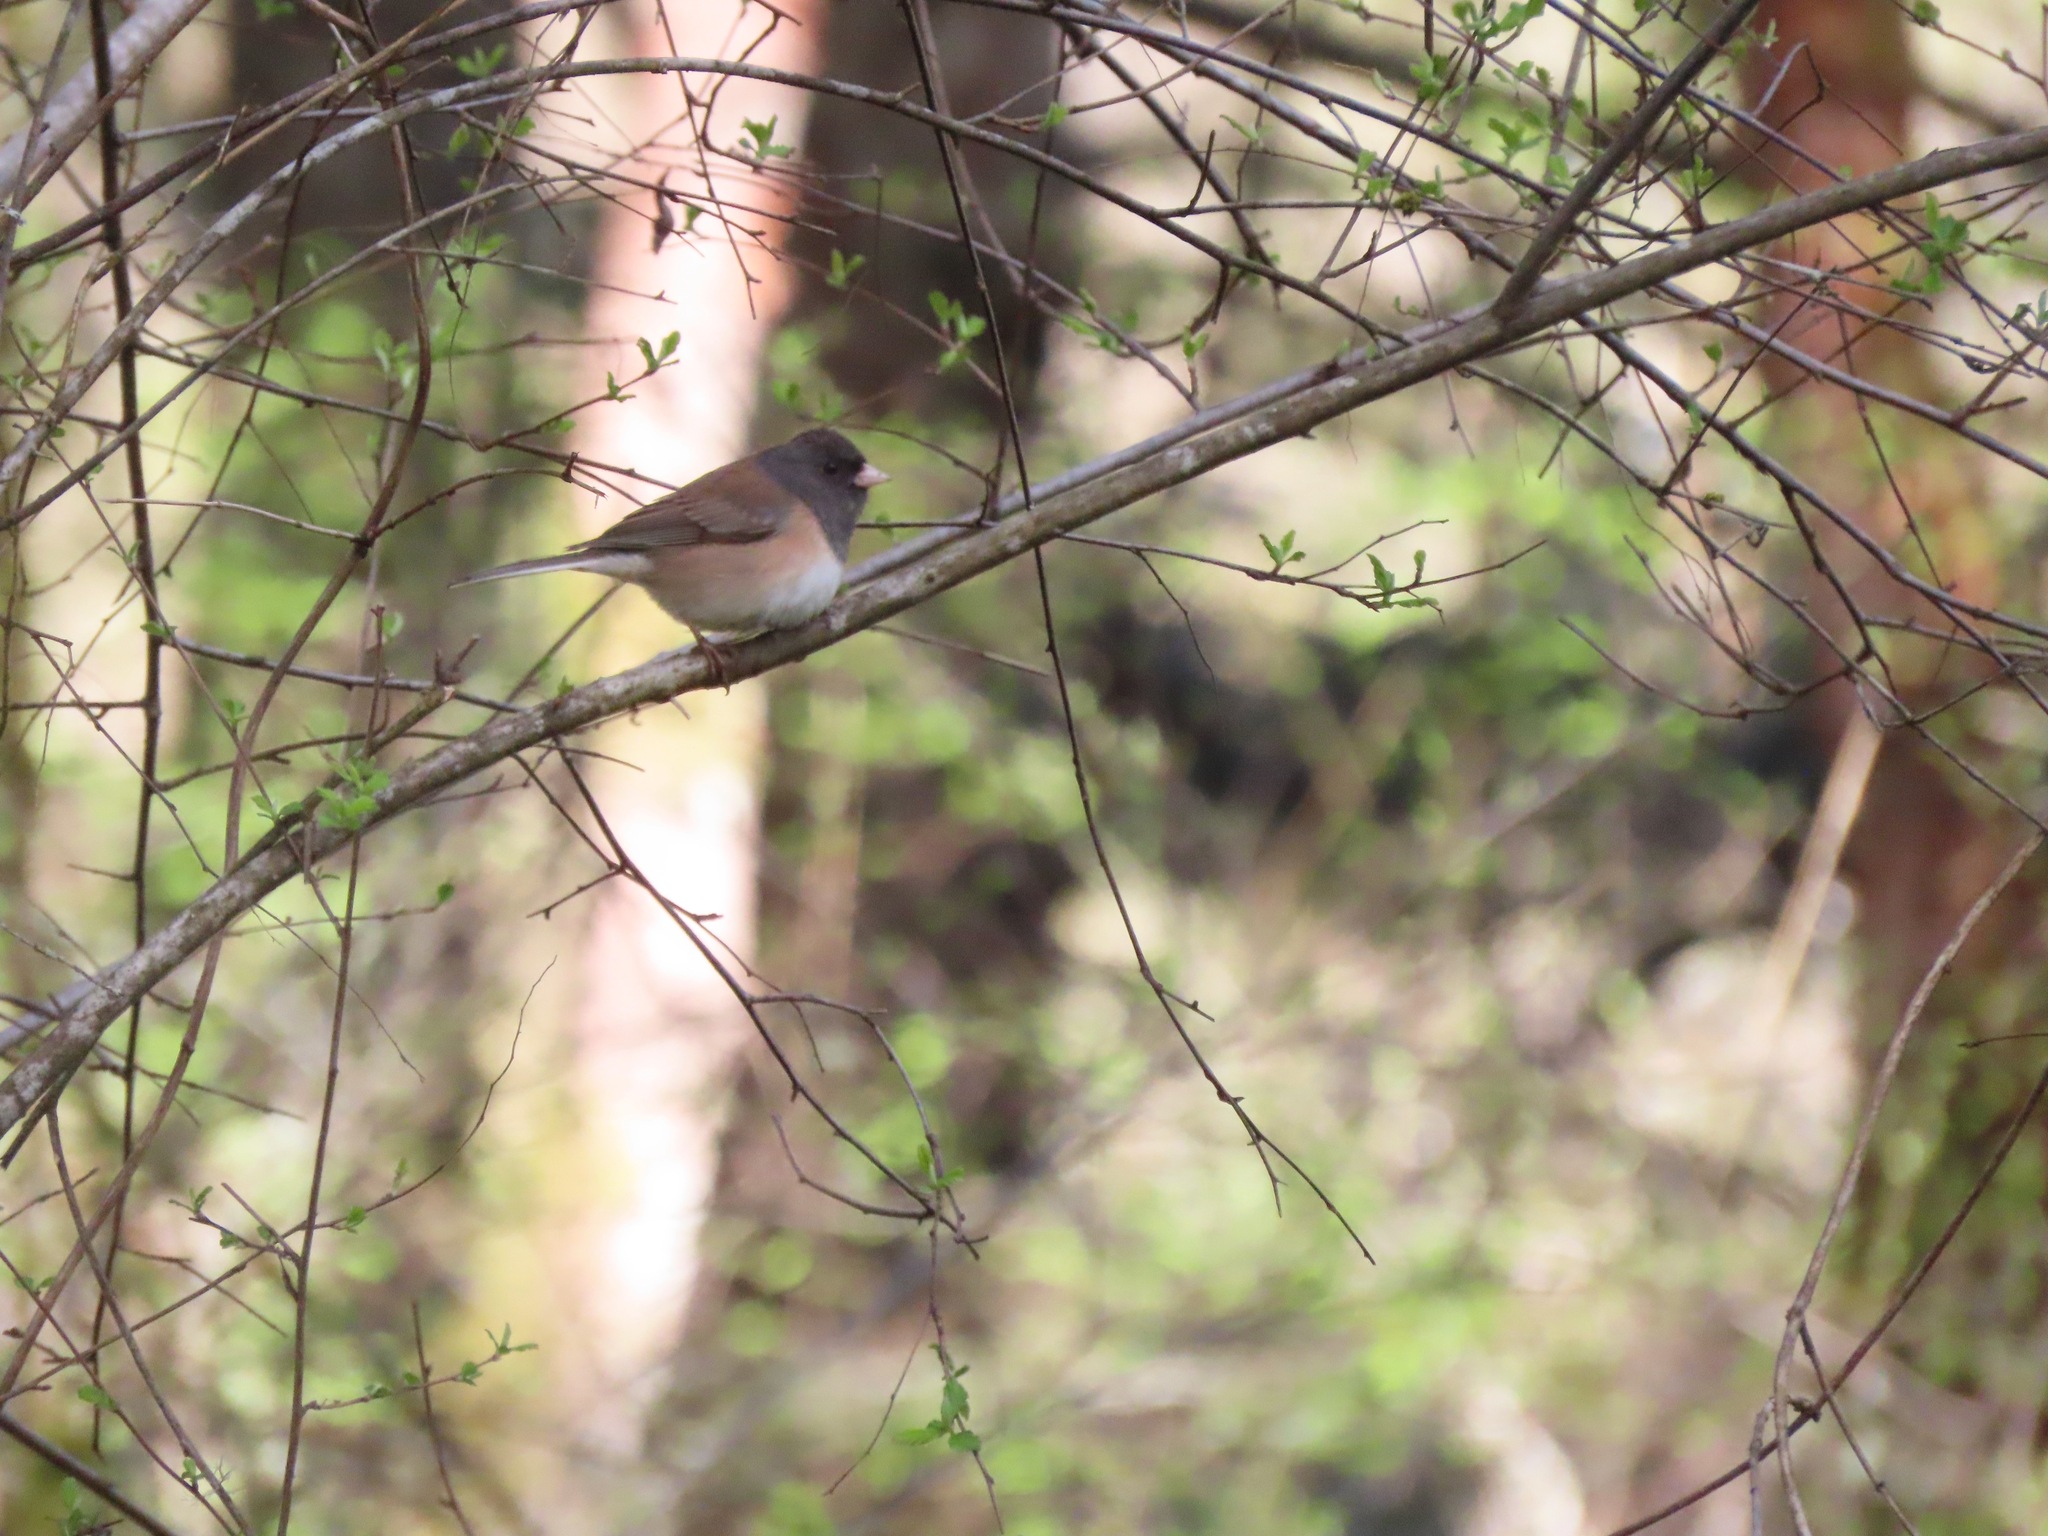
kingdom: Animalia
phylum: Chordata
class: Aves
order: Passeriformes
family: Passerellidae
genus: Junco
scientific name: Junco hyemalis
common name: Dark-eyed junco
